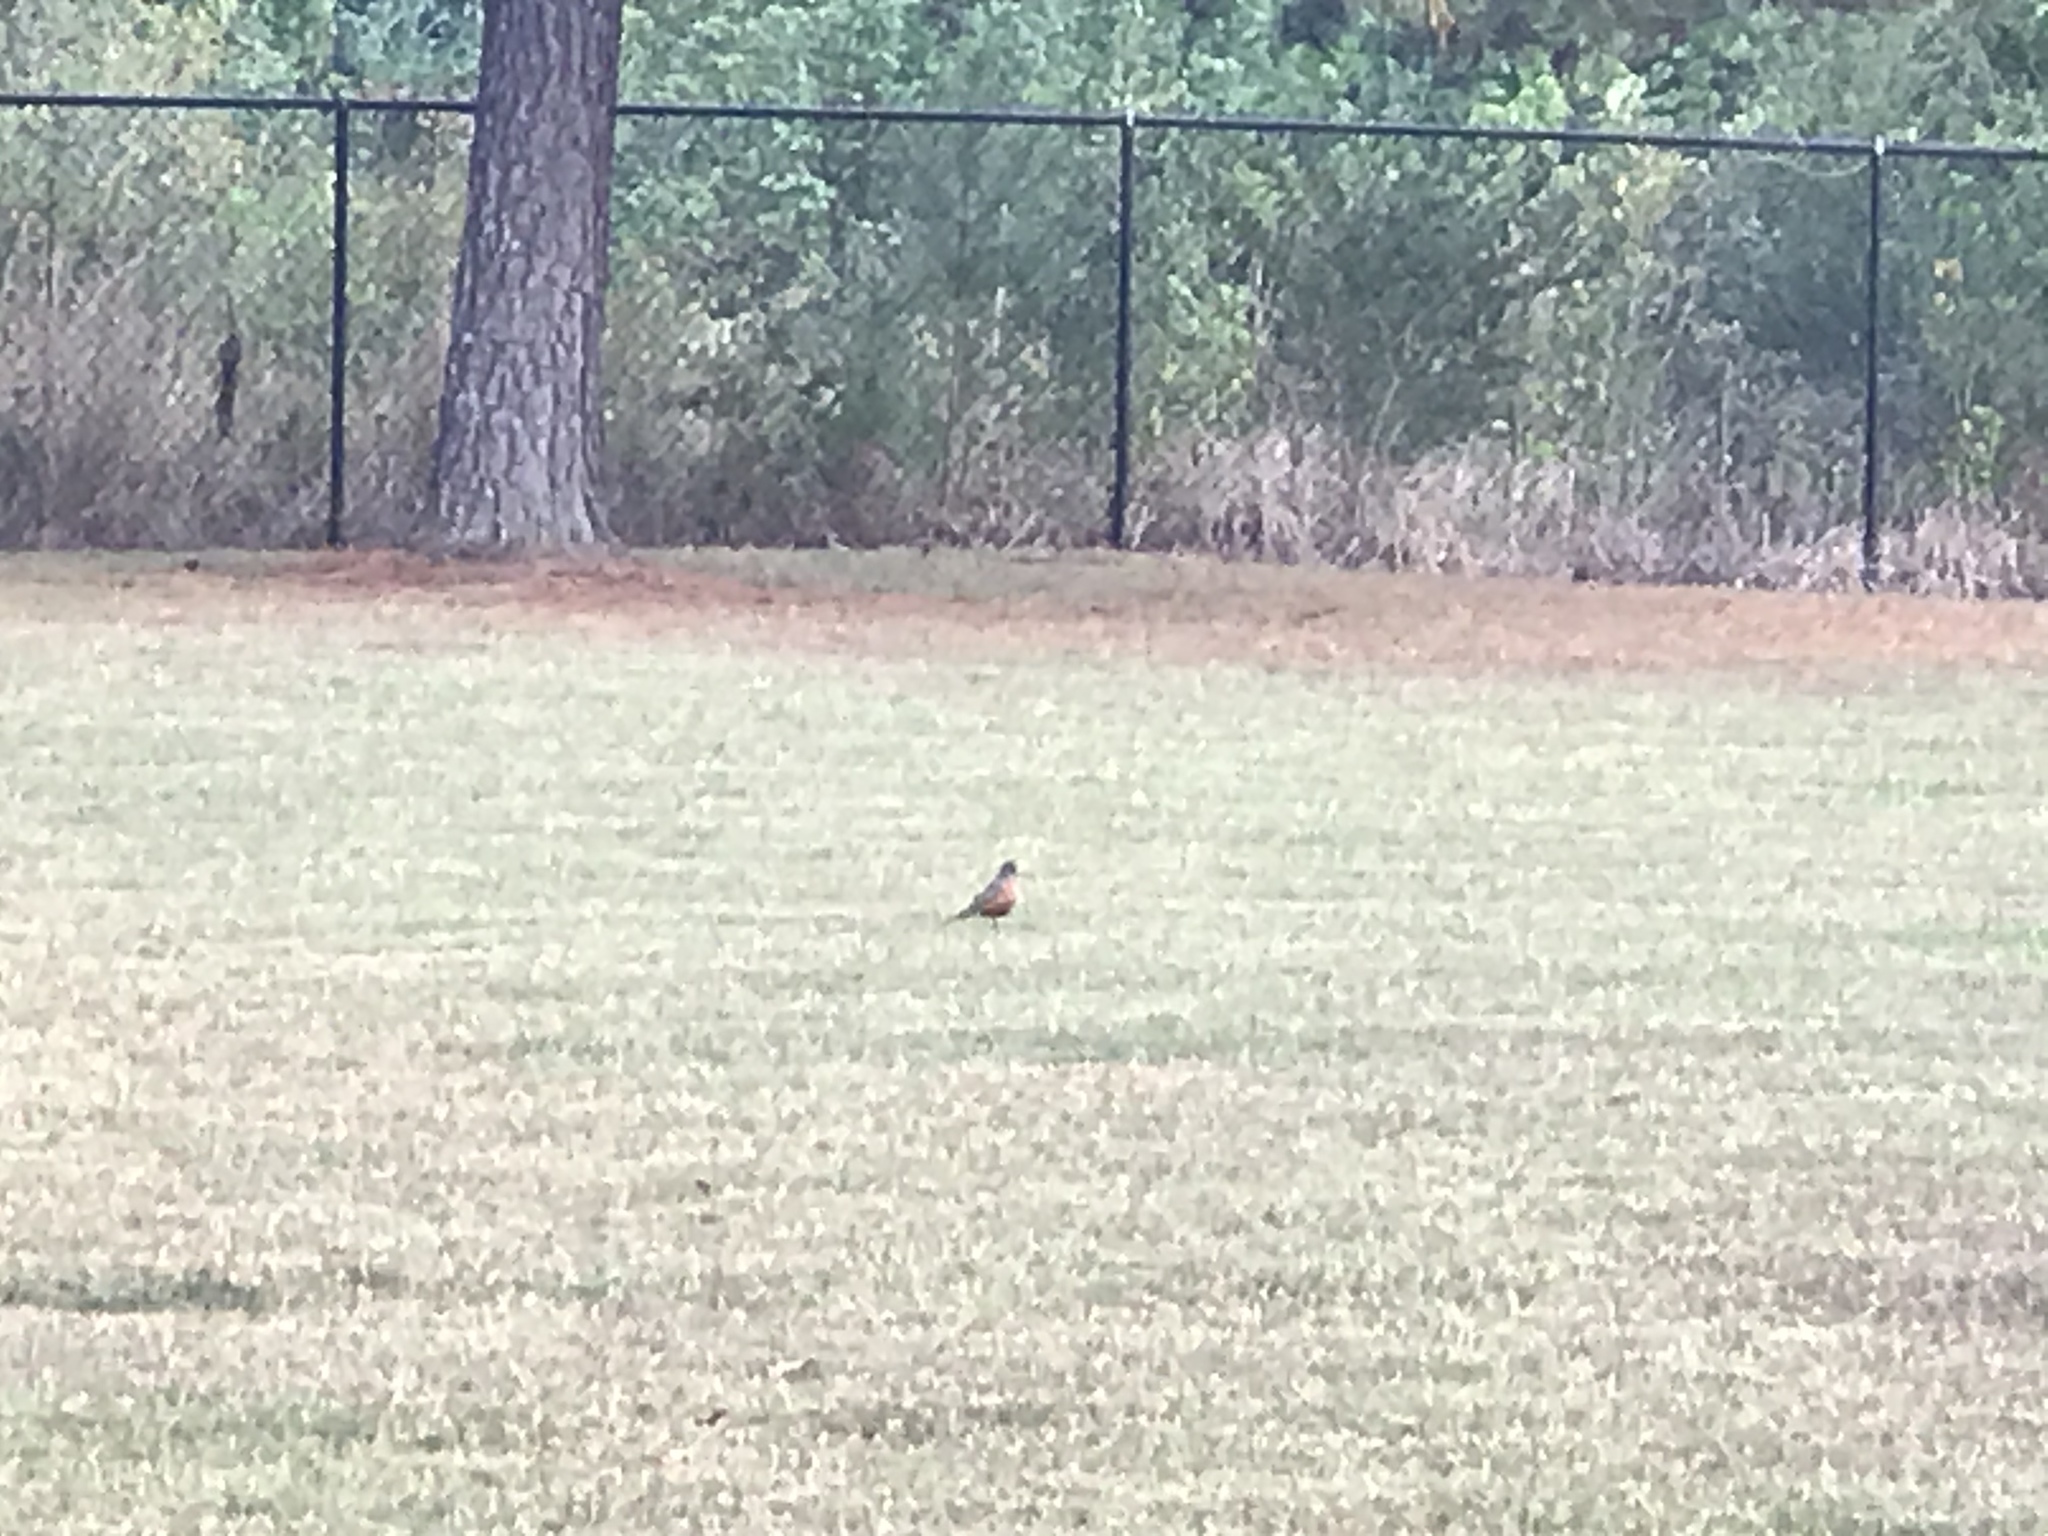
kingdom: Animalia
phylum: Chordata
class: Aves
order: Passeriformes
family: Turdidae
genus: Turdus
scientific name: Turdus migratorius
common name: American robin
